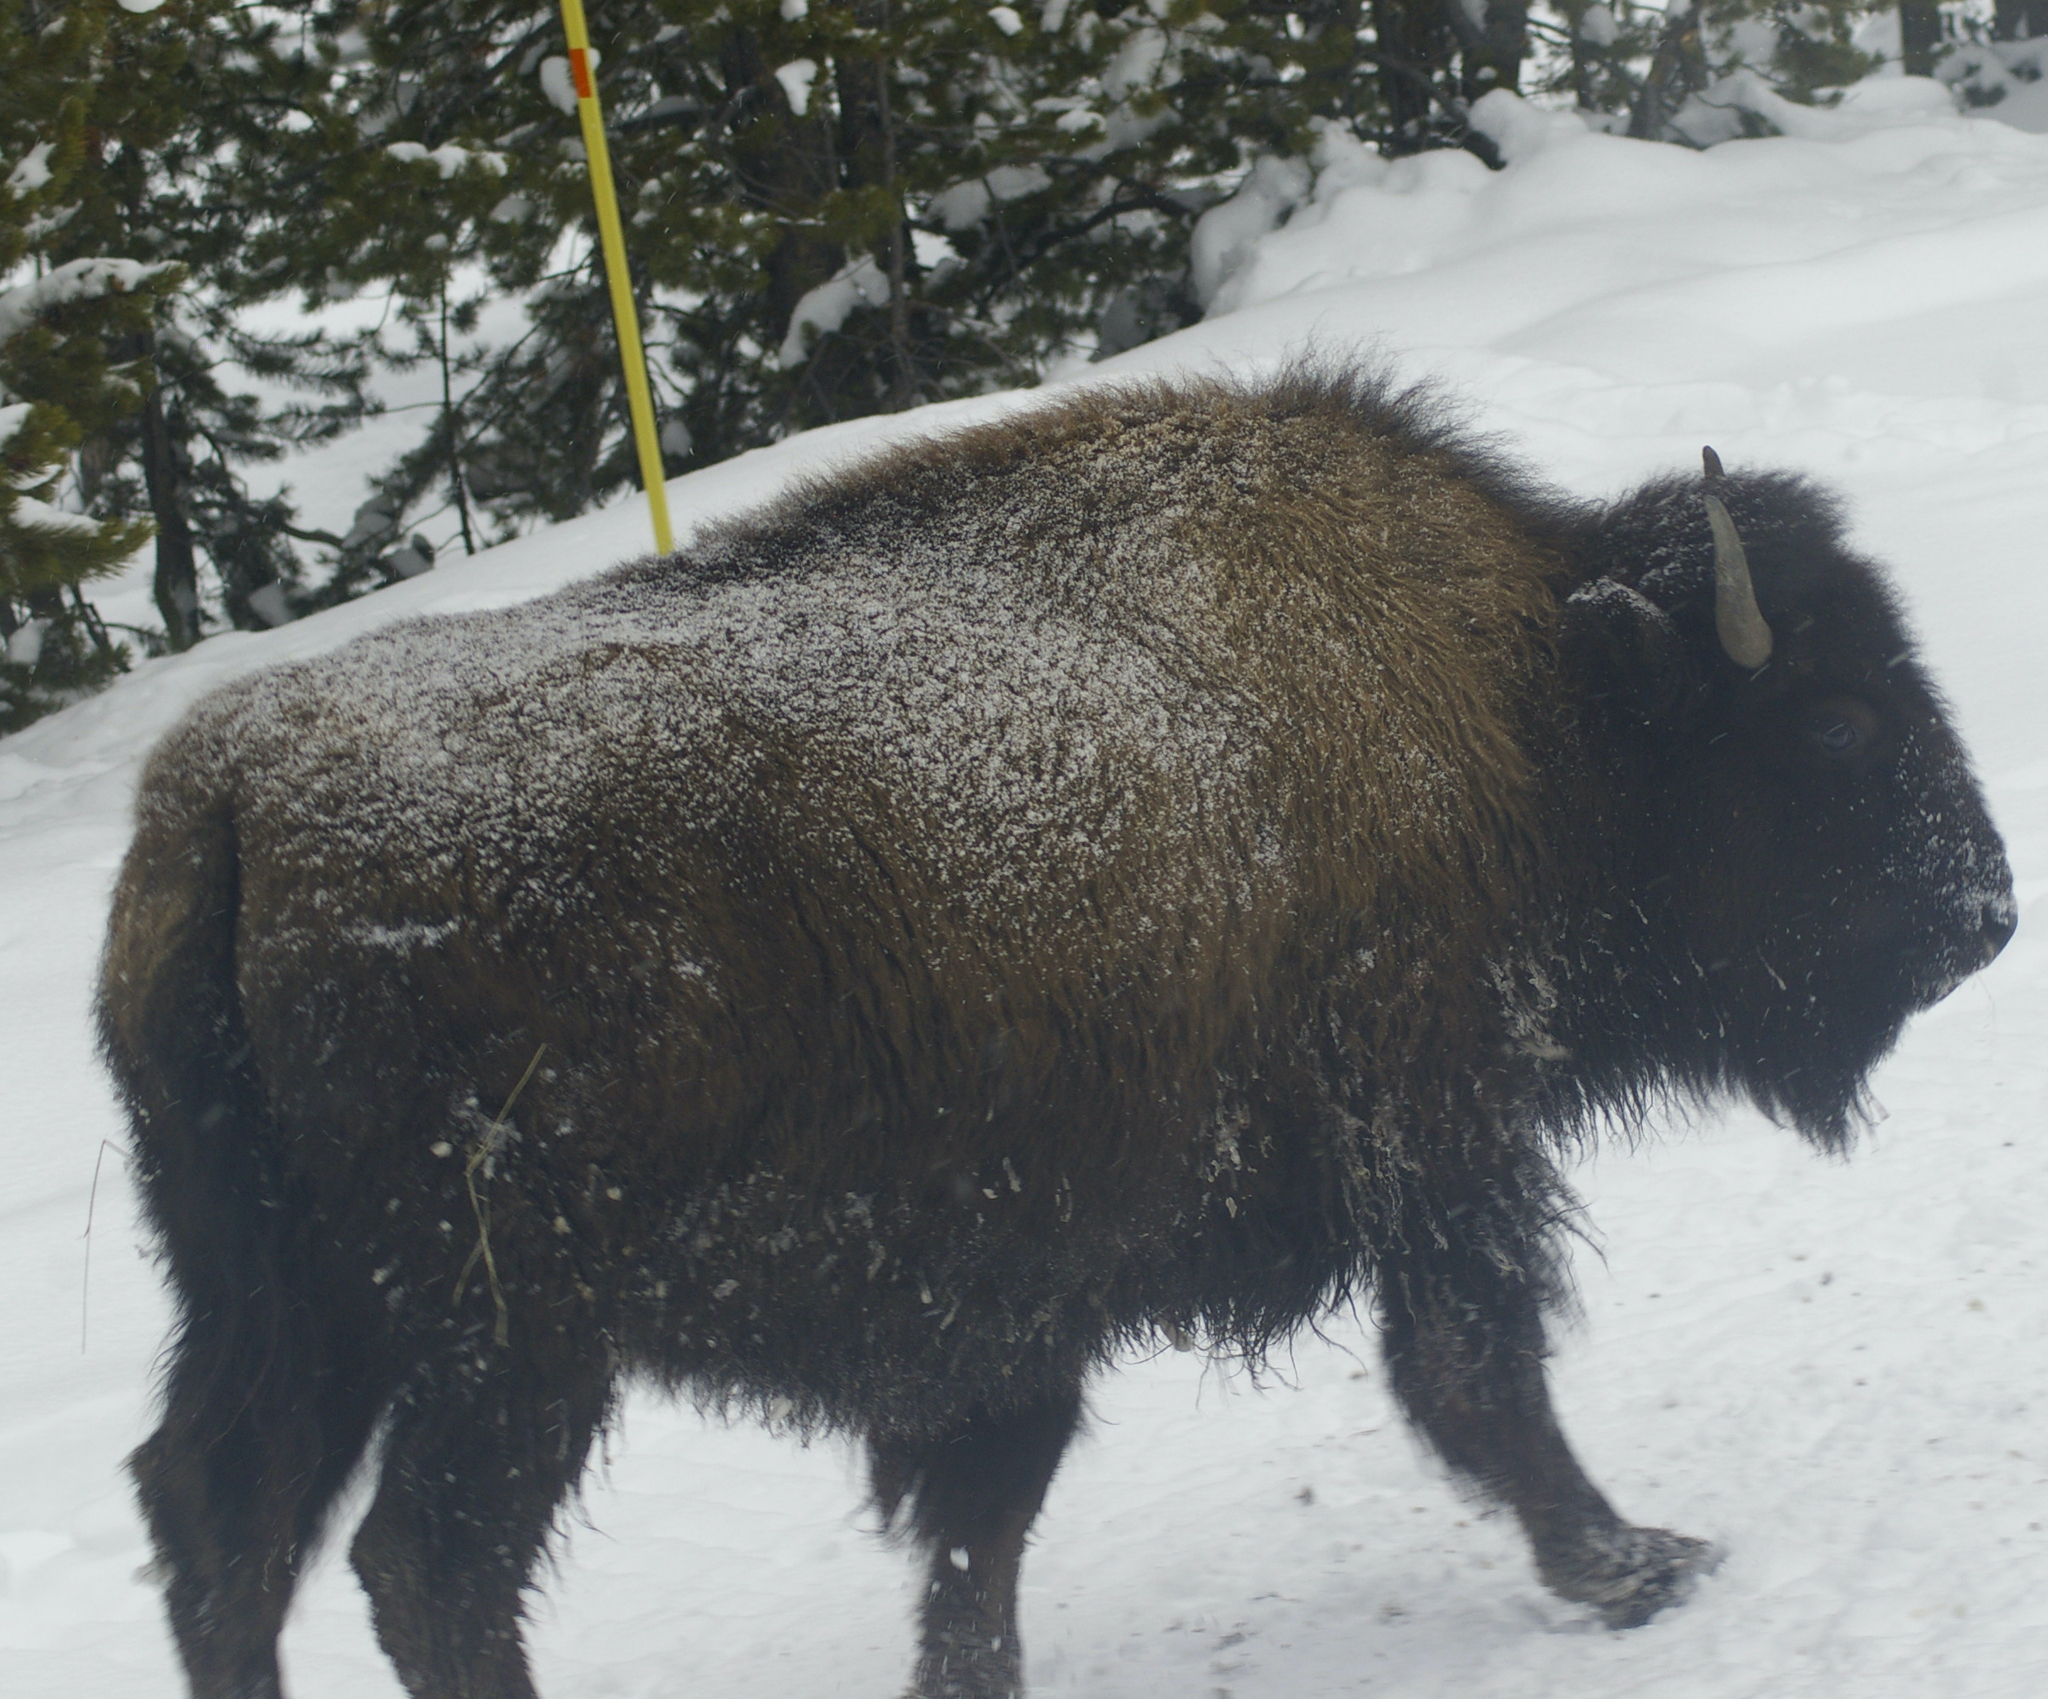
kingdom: Animalia
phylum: Chordata
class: Mammalia
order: Artiodactyla
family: Bovidae
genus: Bison
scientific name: Bison bison
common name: American bison
